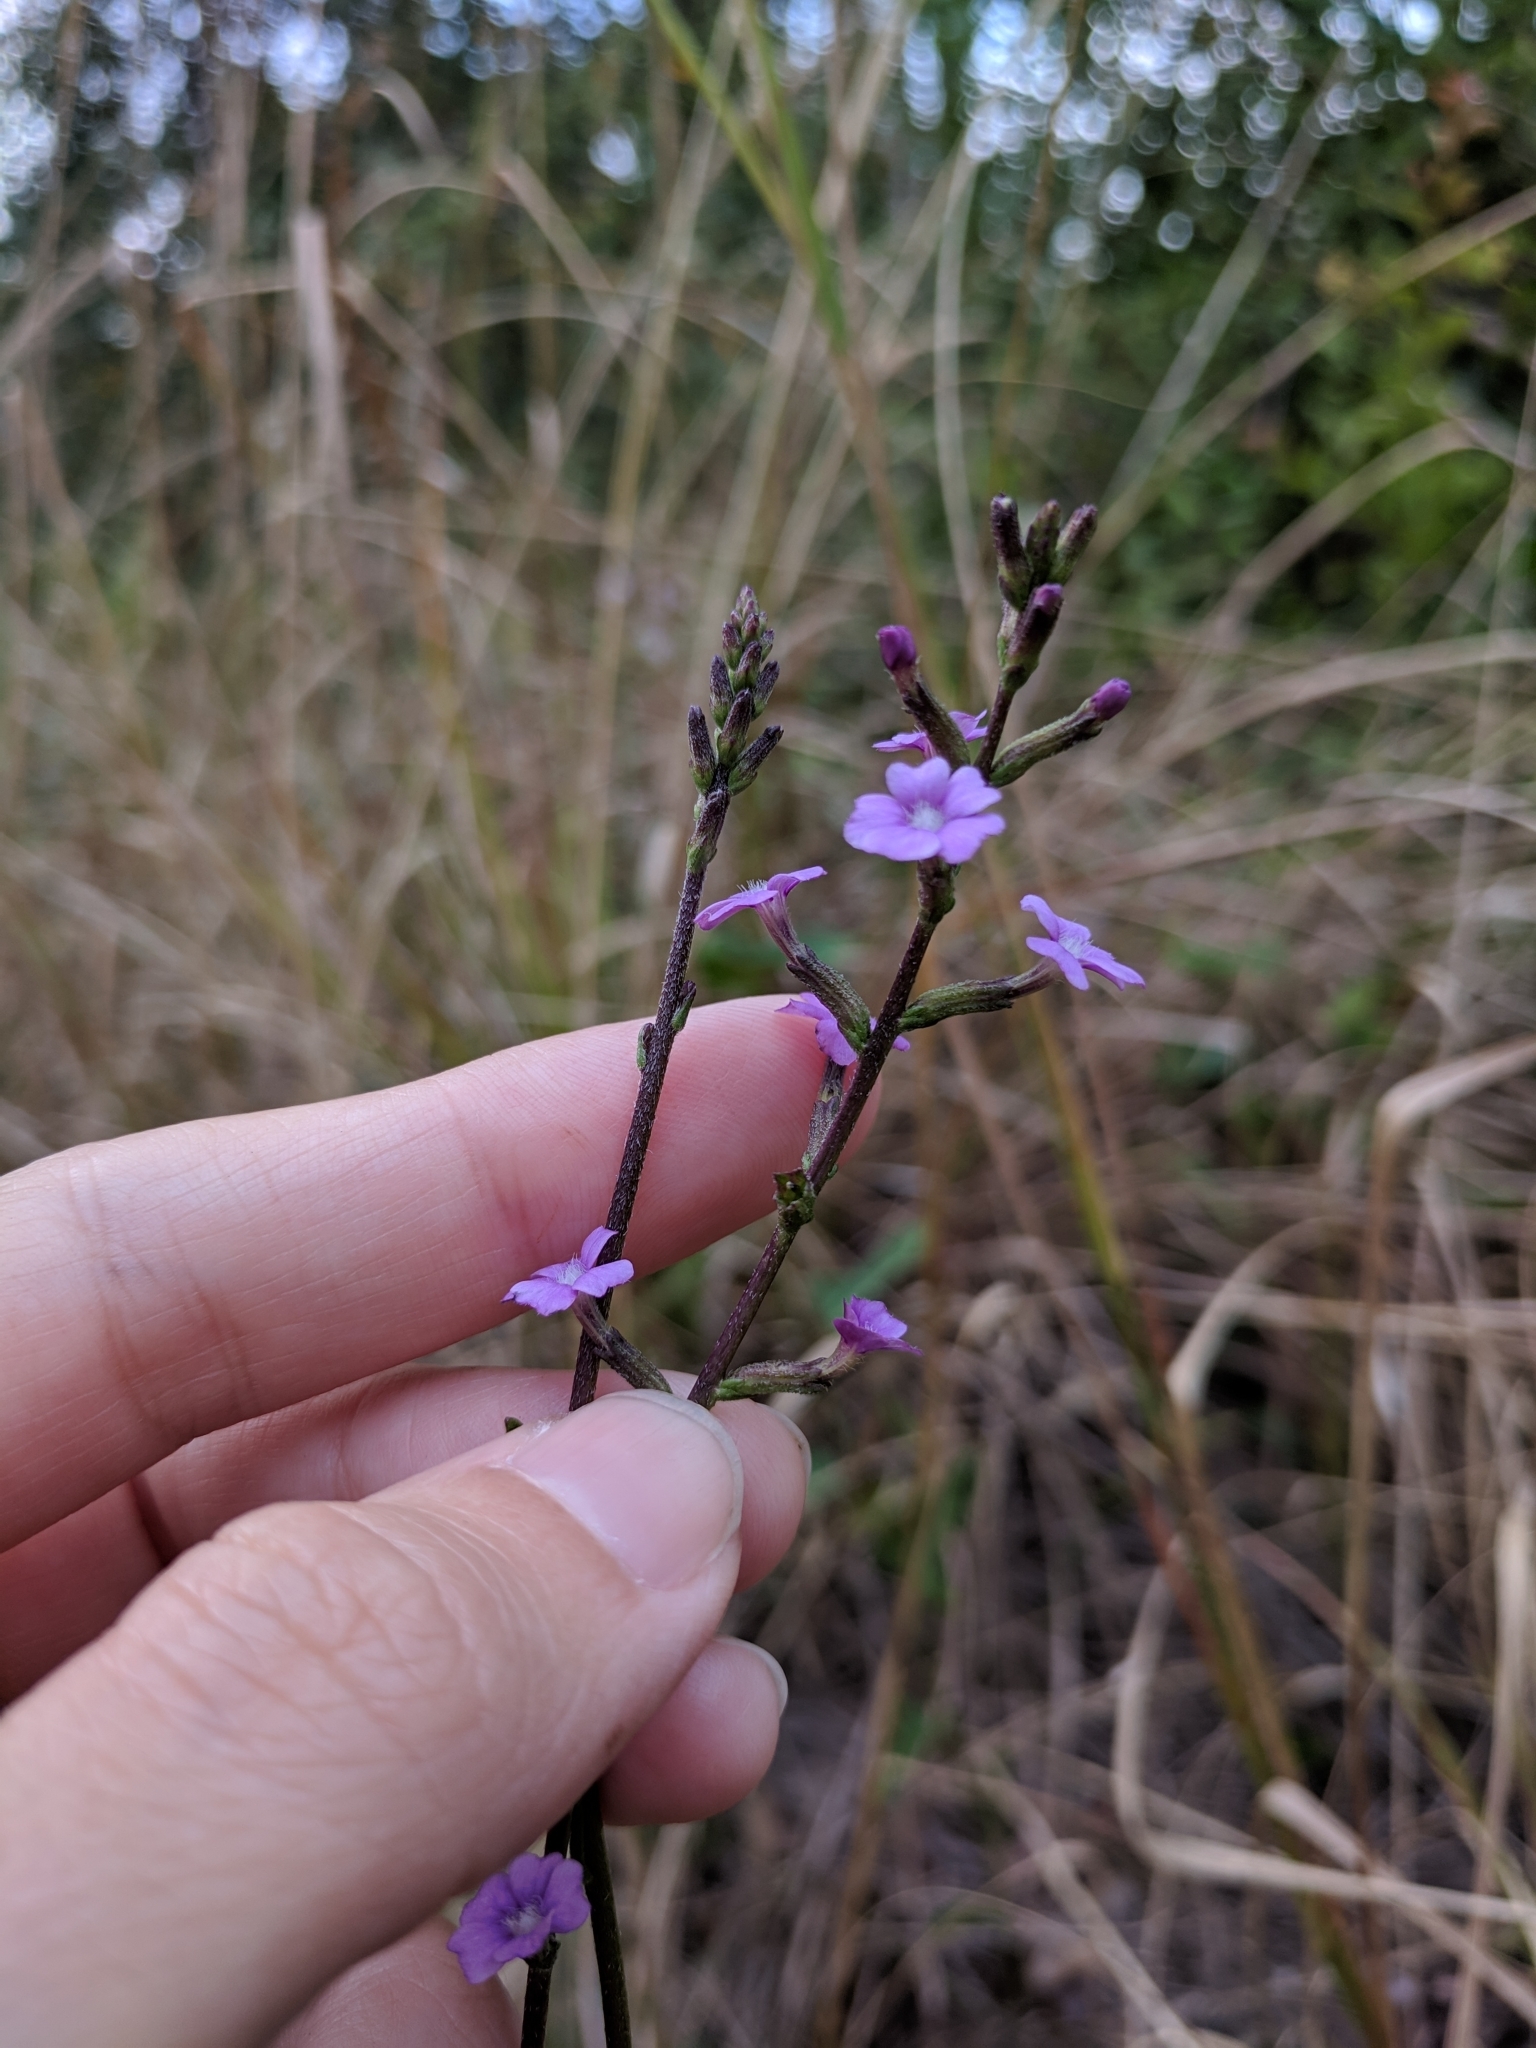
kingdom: Plantae
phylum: Tracheophyta
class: Magnoliopsida
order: Lamiales
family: Orobanchaceae
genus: Buchnera
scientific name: Buchnera floridana
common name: Florida bluehearts
